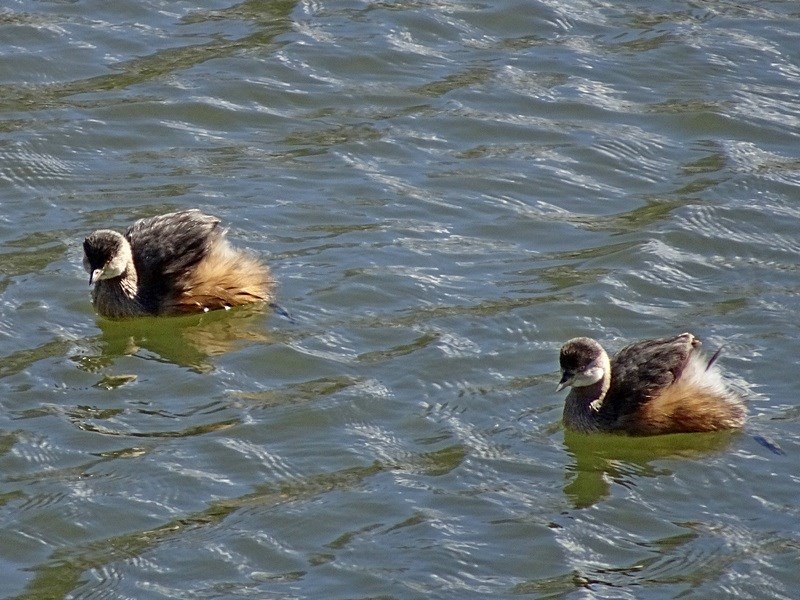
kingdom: Animalia
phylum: Chordata
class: Aves
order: Podicipediformes
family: Podicipedidae
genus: Tachybaptus
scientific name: Tachybaptus novaehollandiae
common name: Australasian grebe
